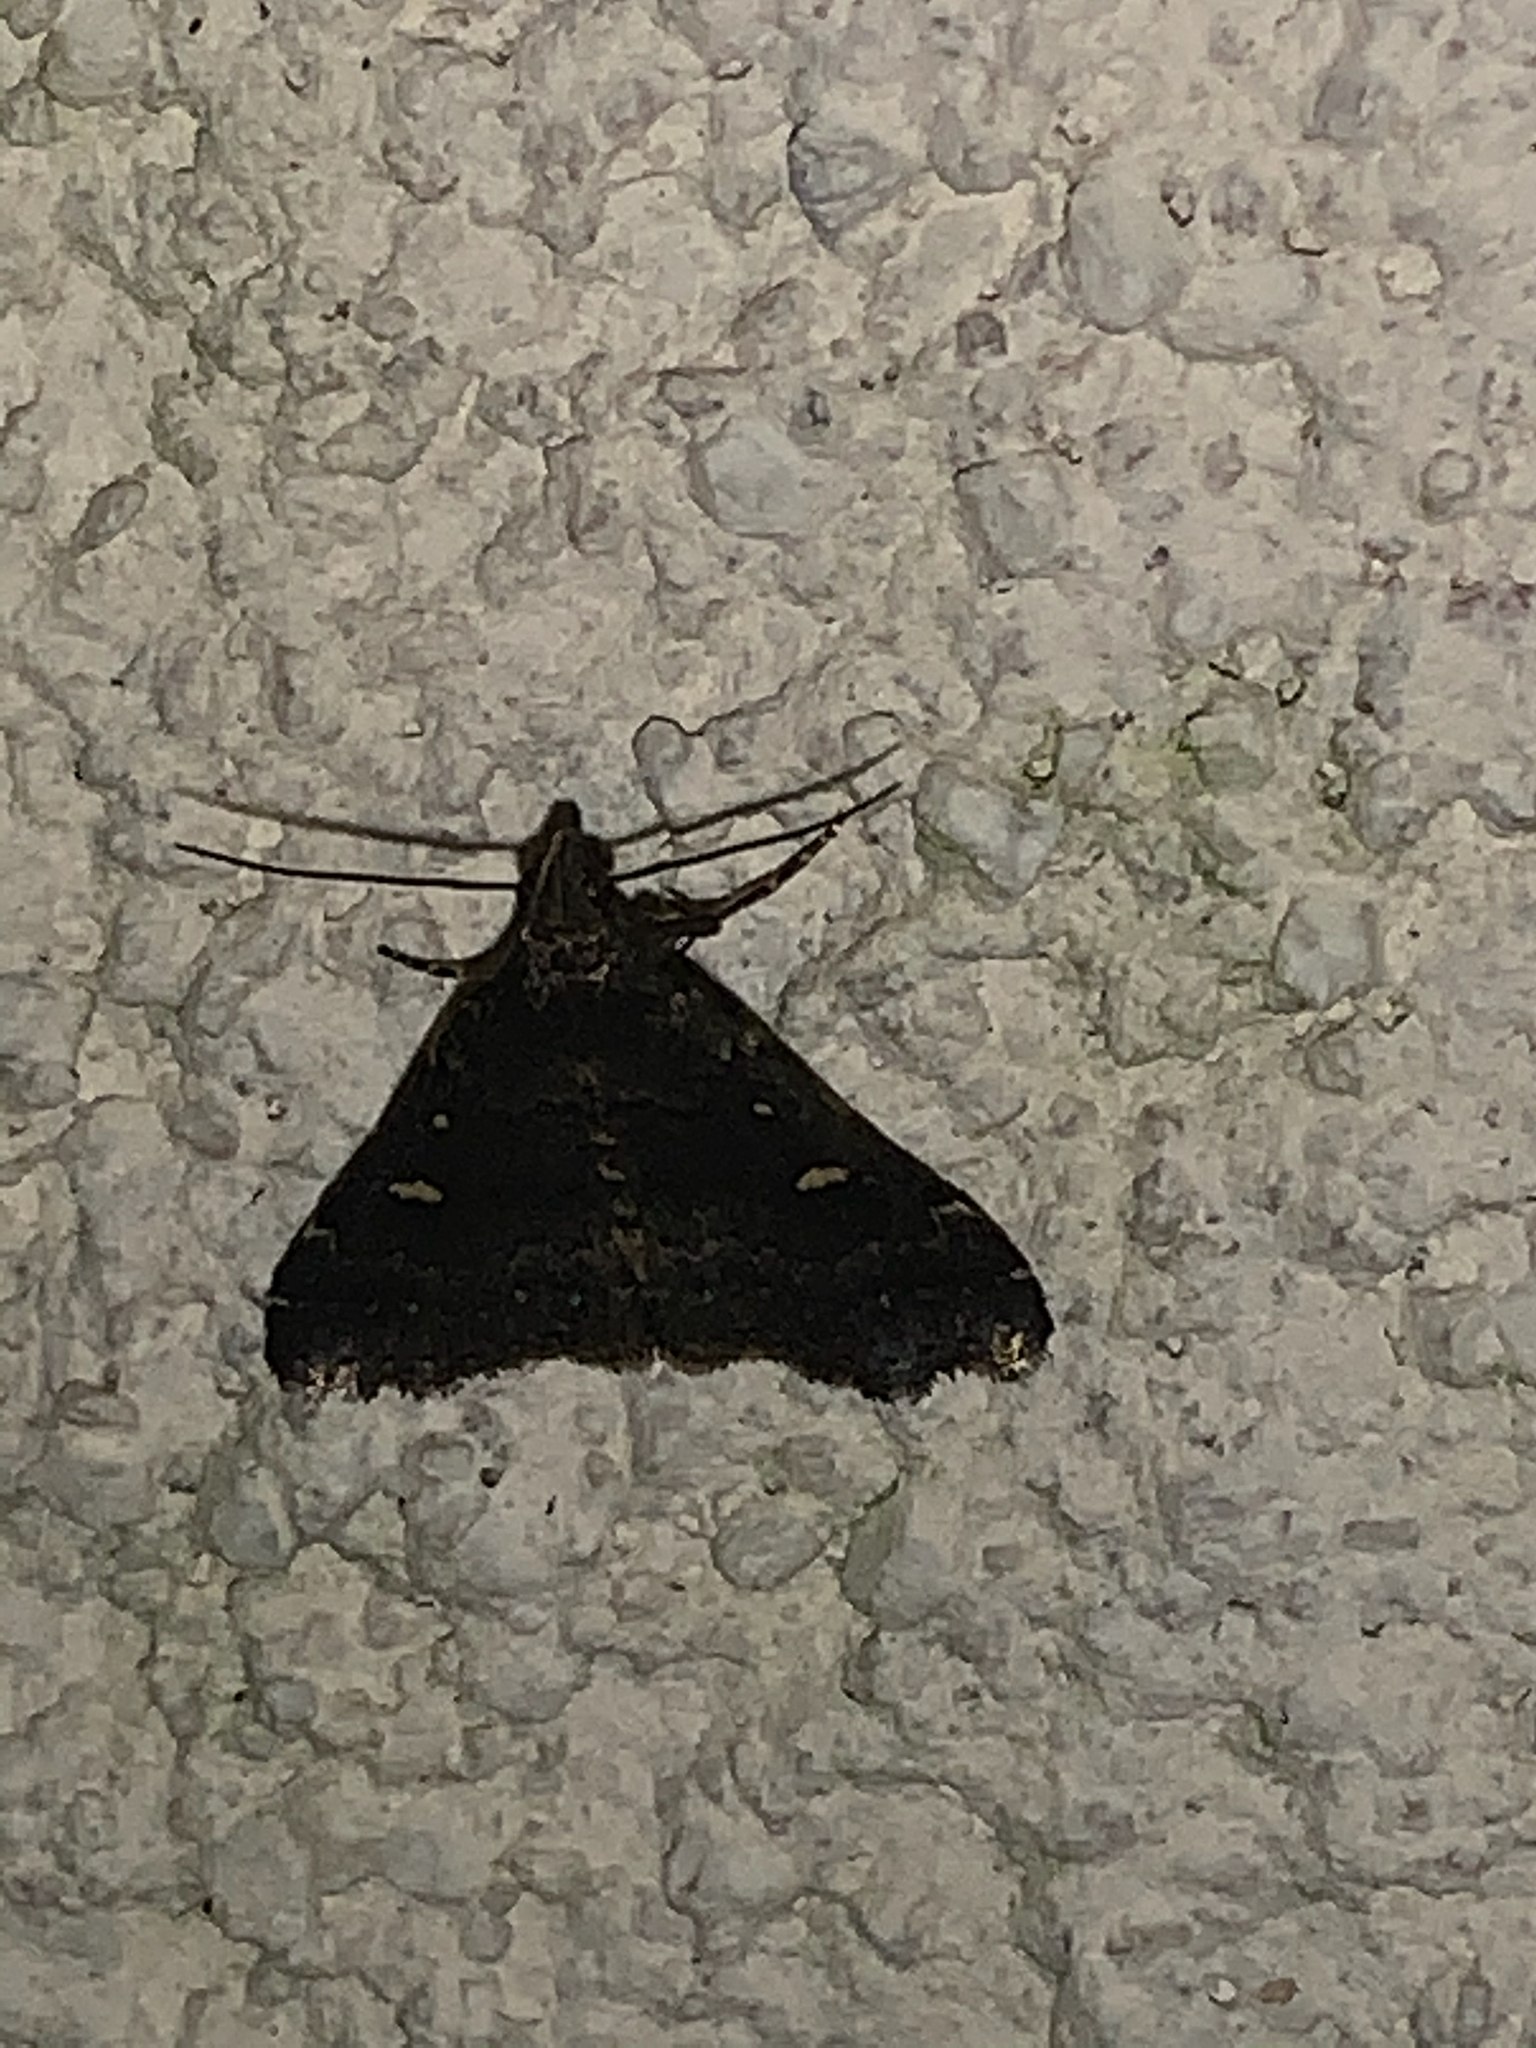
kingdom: Animalia
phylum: Arthropoda
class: Insecta
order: Lepidoptera
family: Erebidae
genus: Tetanolita
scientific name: Tetanolita mynesalis
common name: Smoky tetanolita moth
